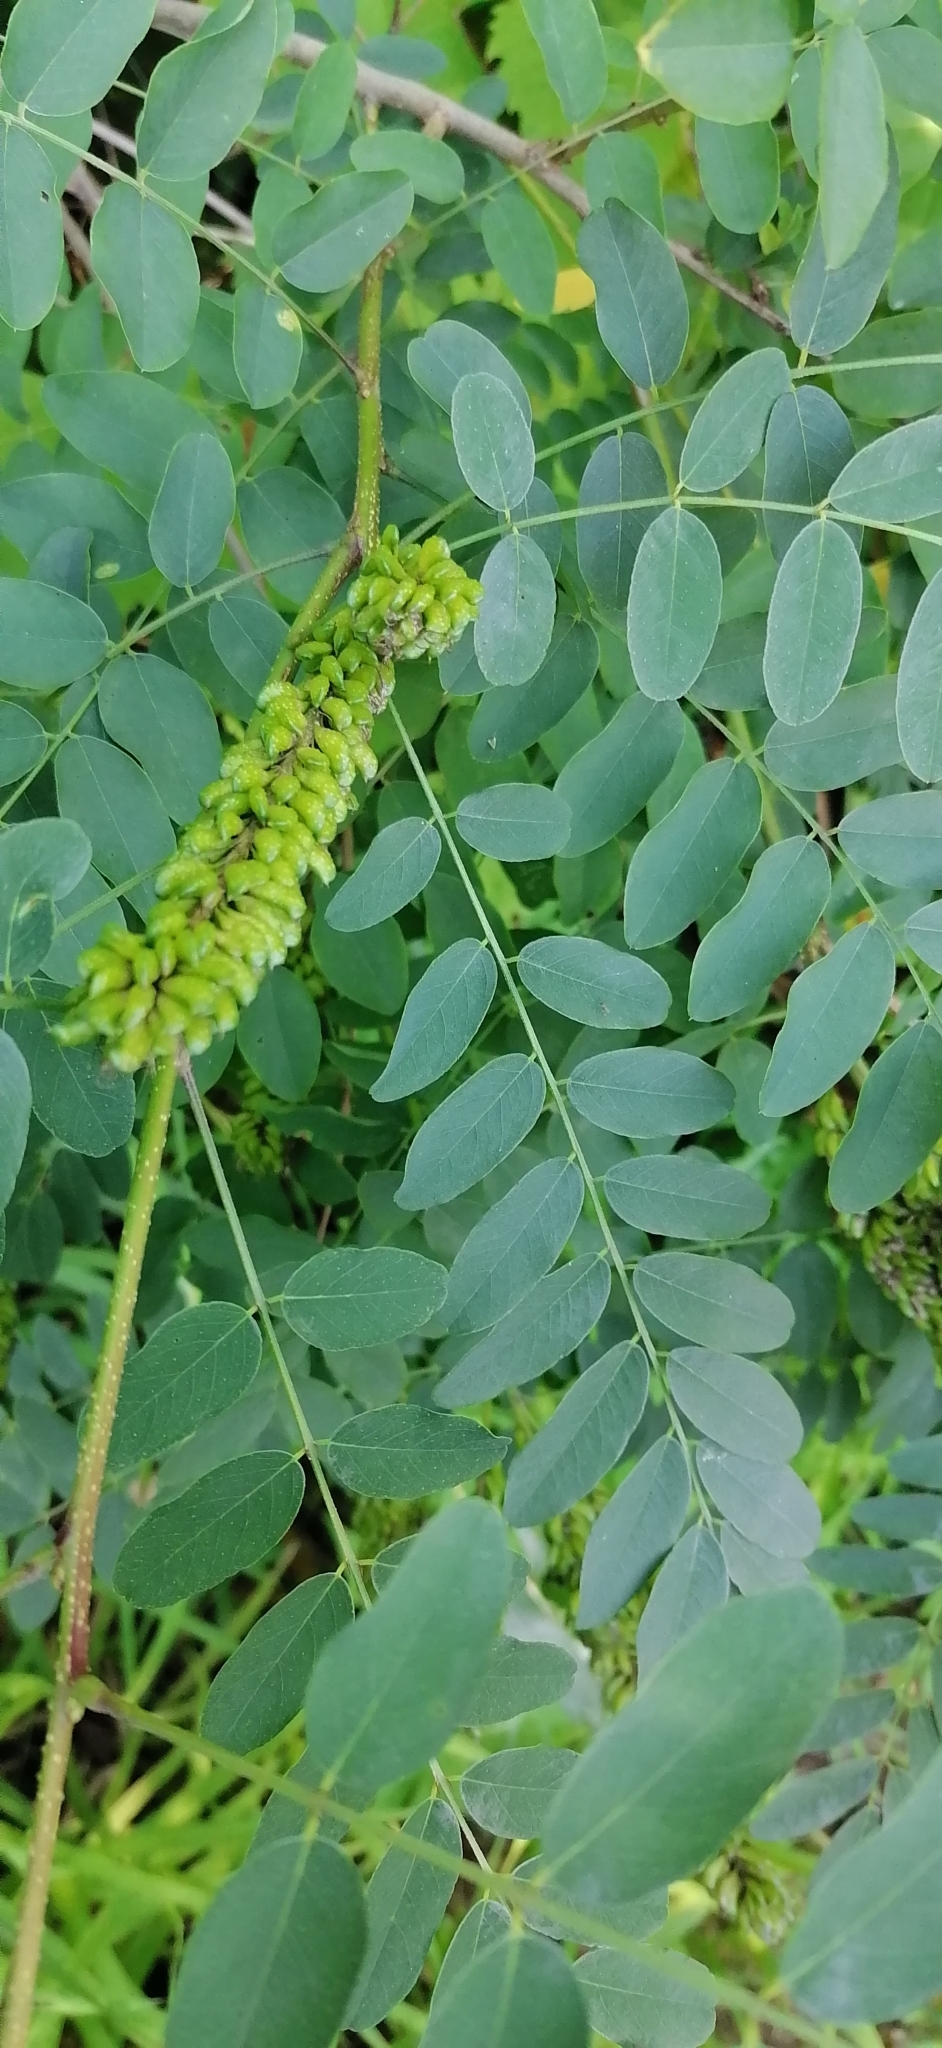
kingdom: Plantae
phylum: Tracheophyta
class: Magnoliopsida
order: Fabales
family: Fabaceae
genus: Amorpha
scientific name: Amorpha fruticosa
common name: False indigo
